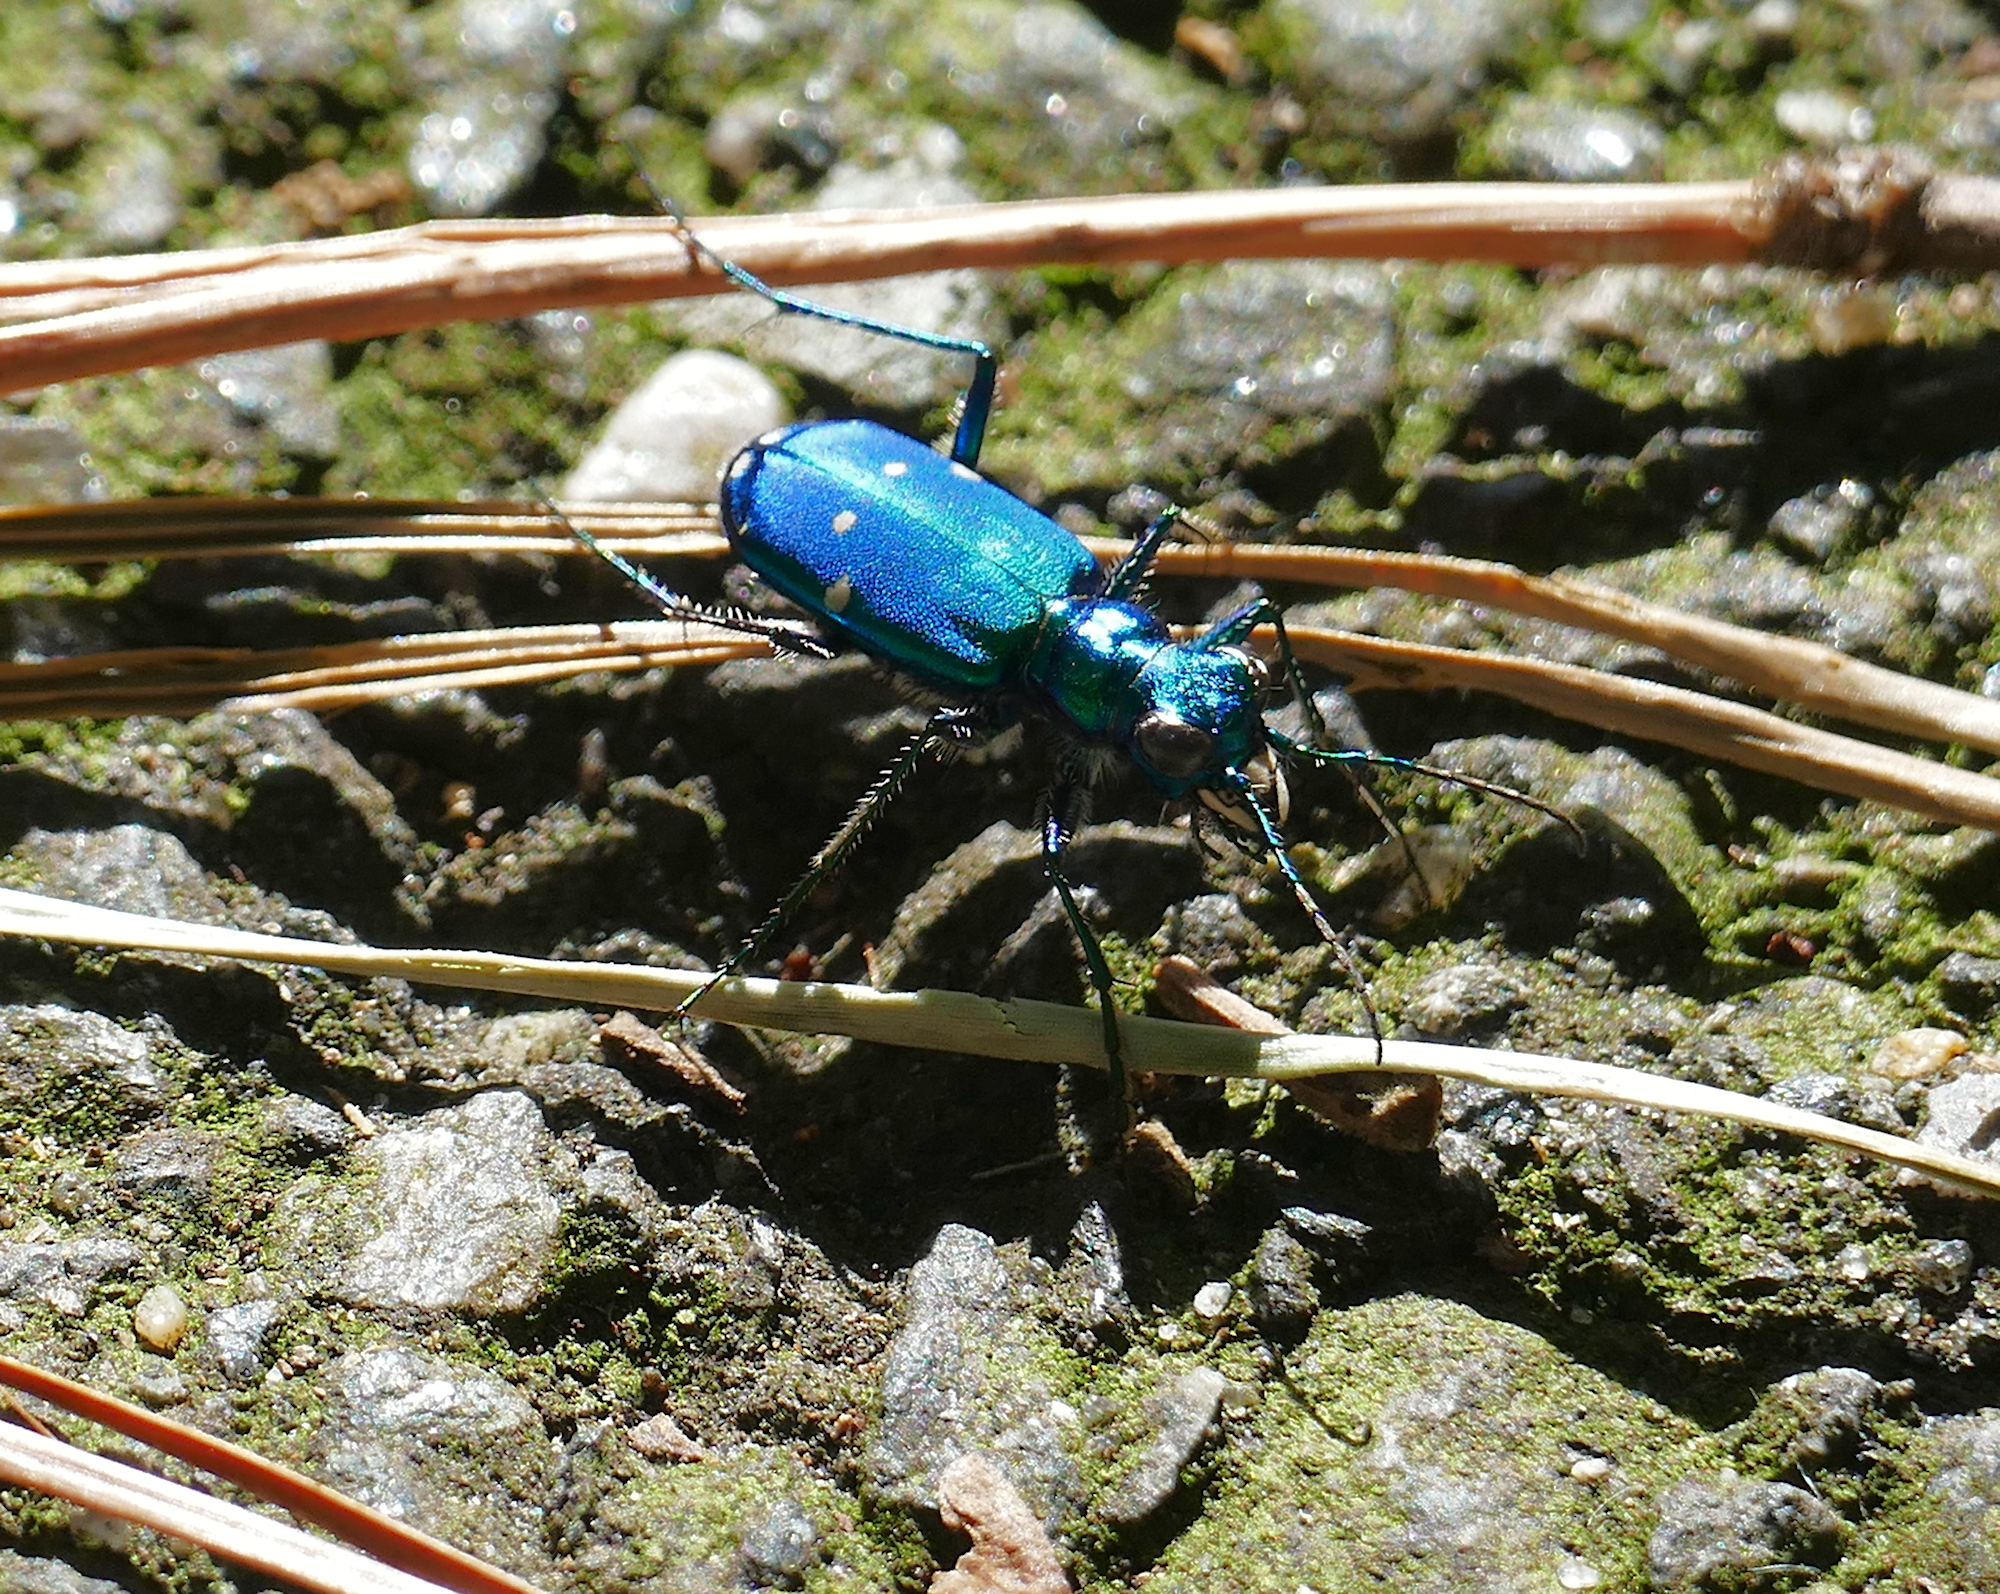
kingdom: Animalia
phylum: Arthropoda
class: Insecta
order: Coleoptera
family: Carabidae
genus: Cicindela
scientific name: Cicindela sexguttata
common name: Six-spotted tiger beetle
